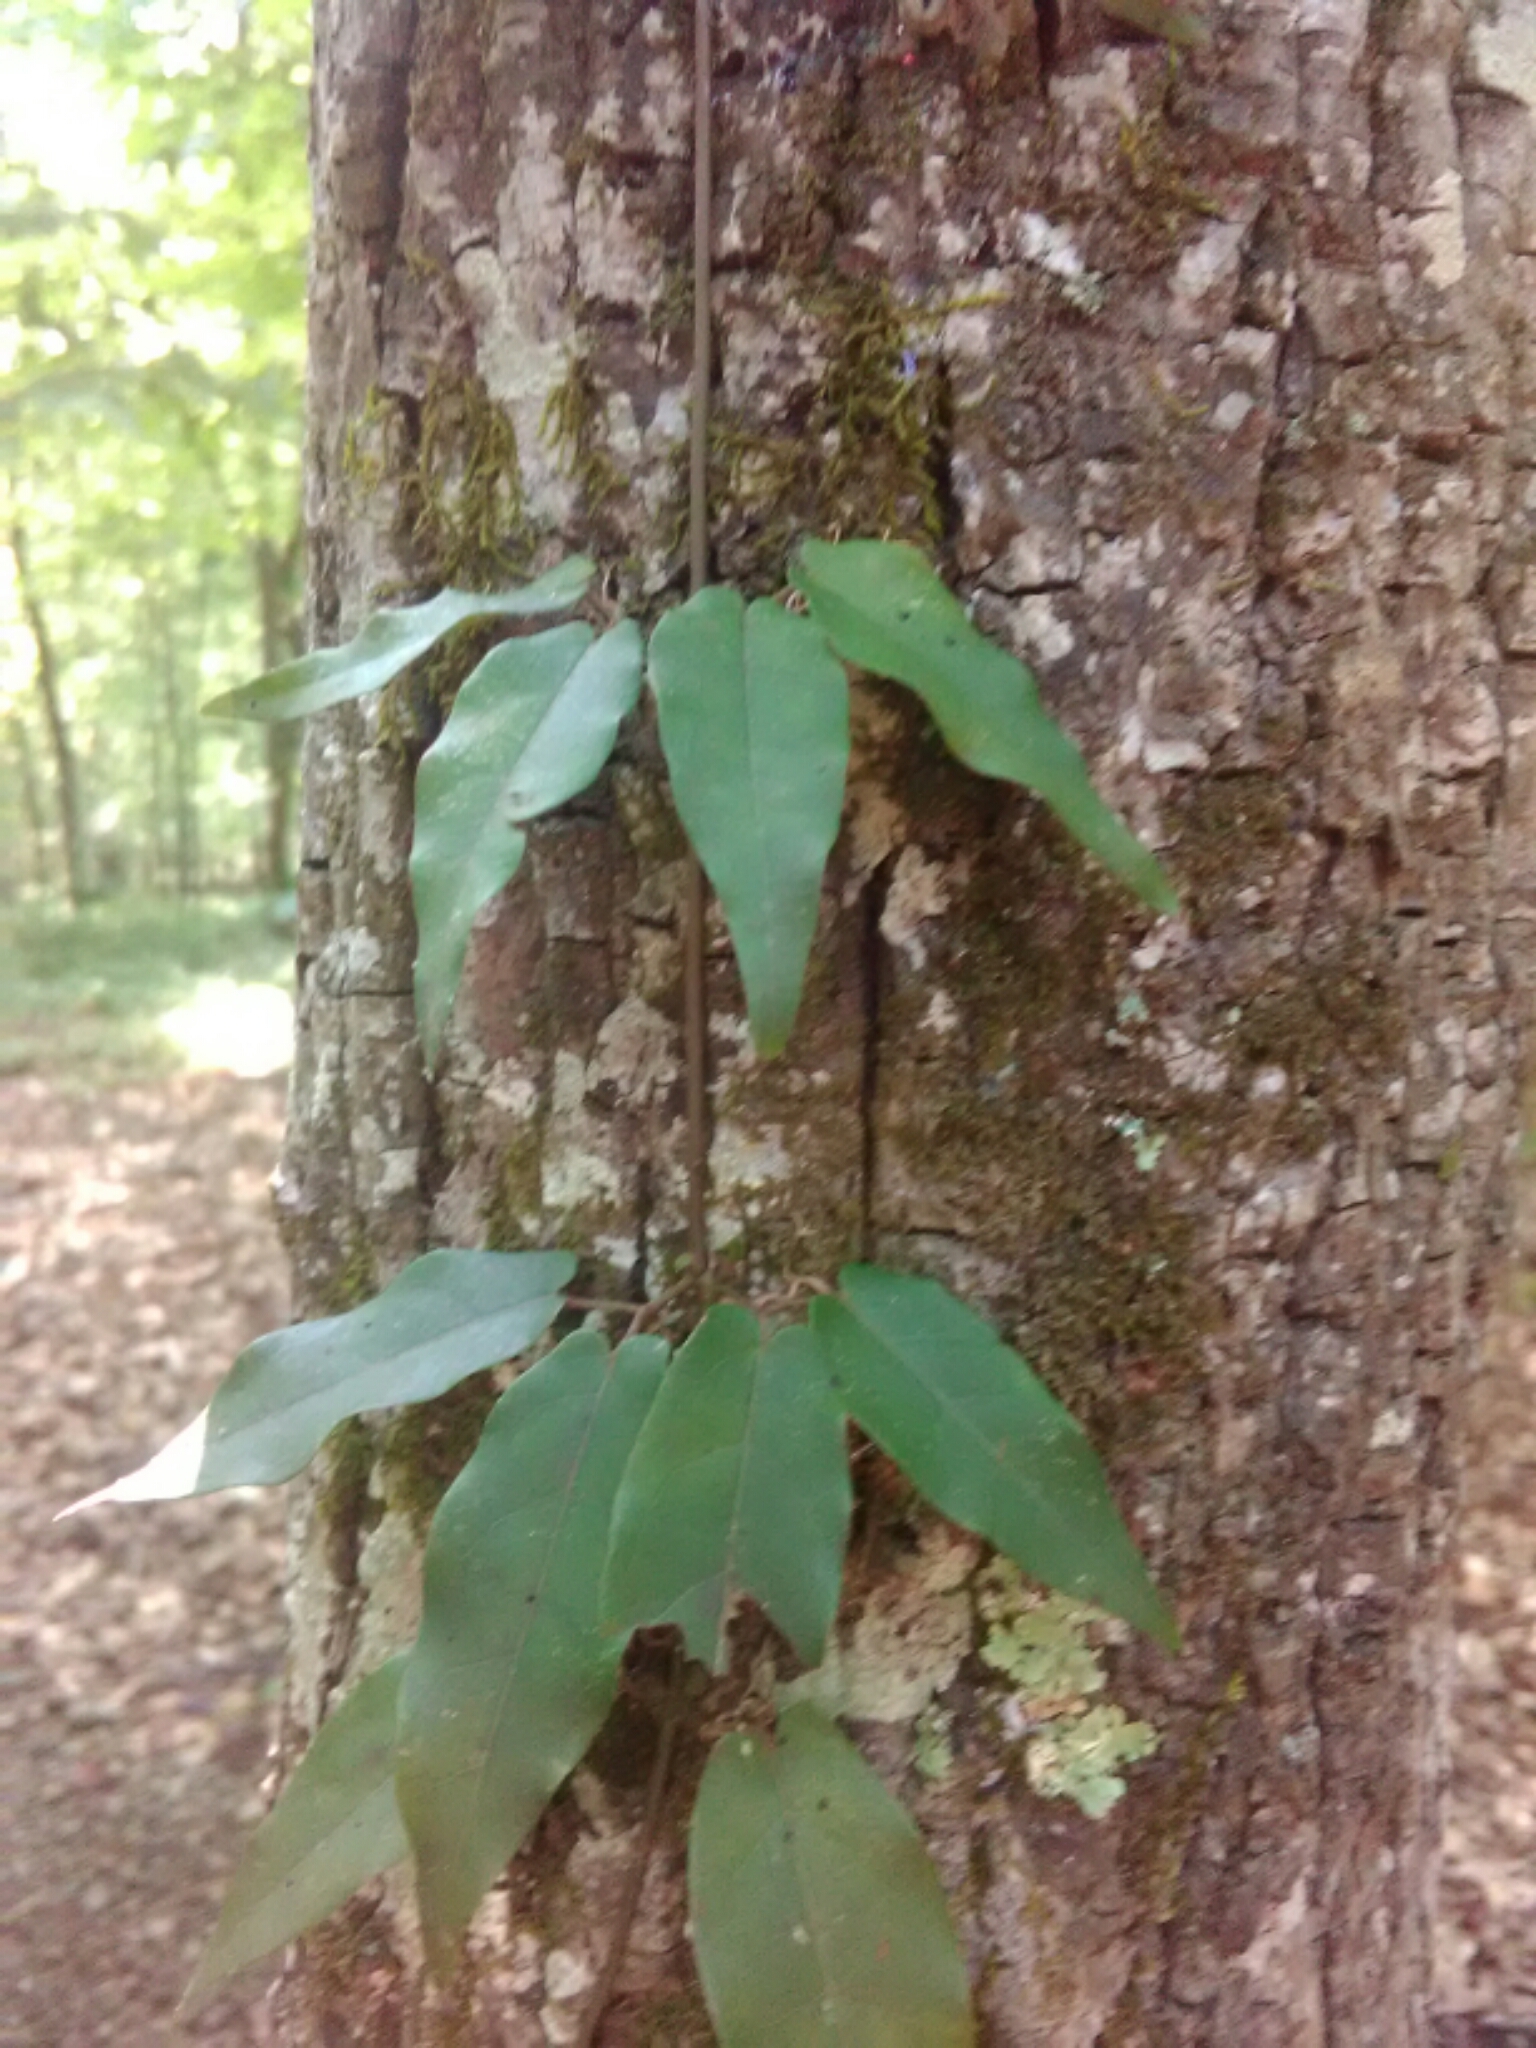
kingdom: Plantae
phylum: Tracheophyta
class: Magnoliopsida
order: Lamiales
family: Bignoniaceae
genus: Bignonia
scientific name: Bignonia capreolata
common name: Crossvine
